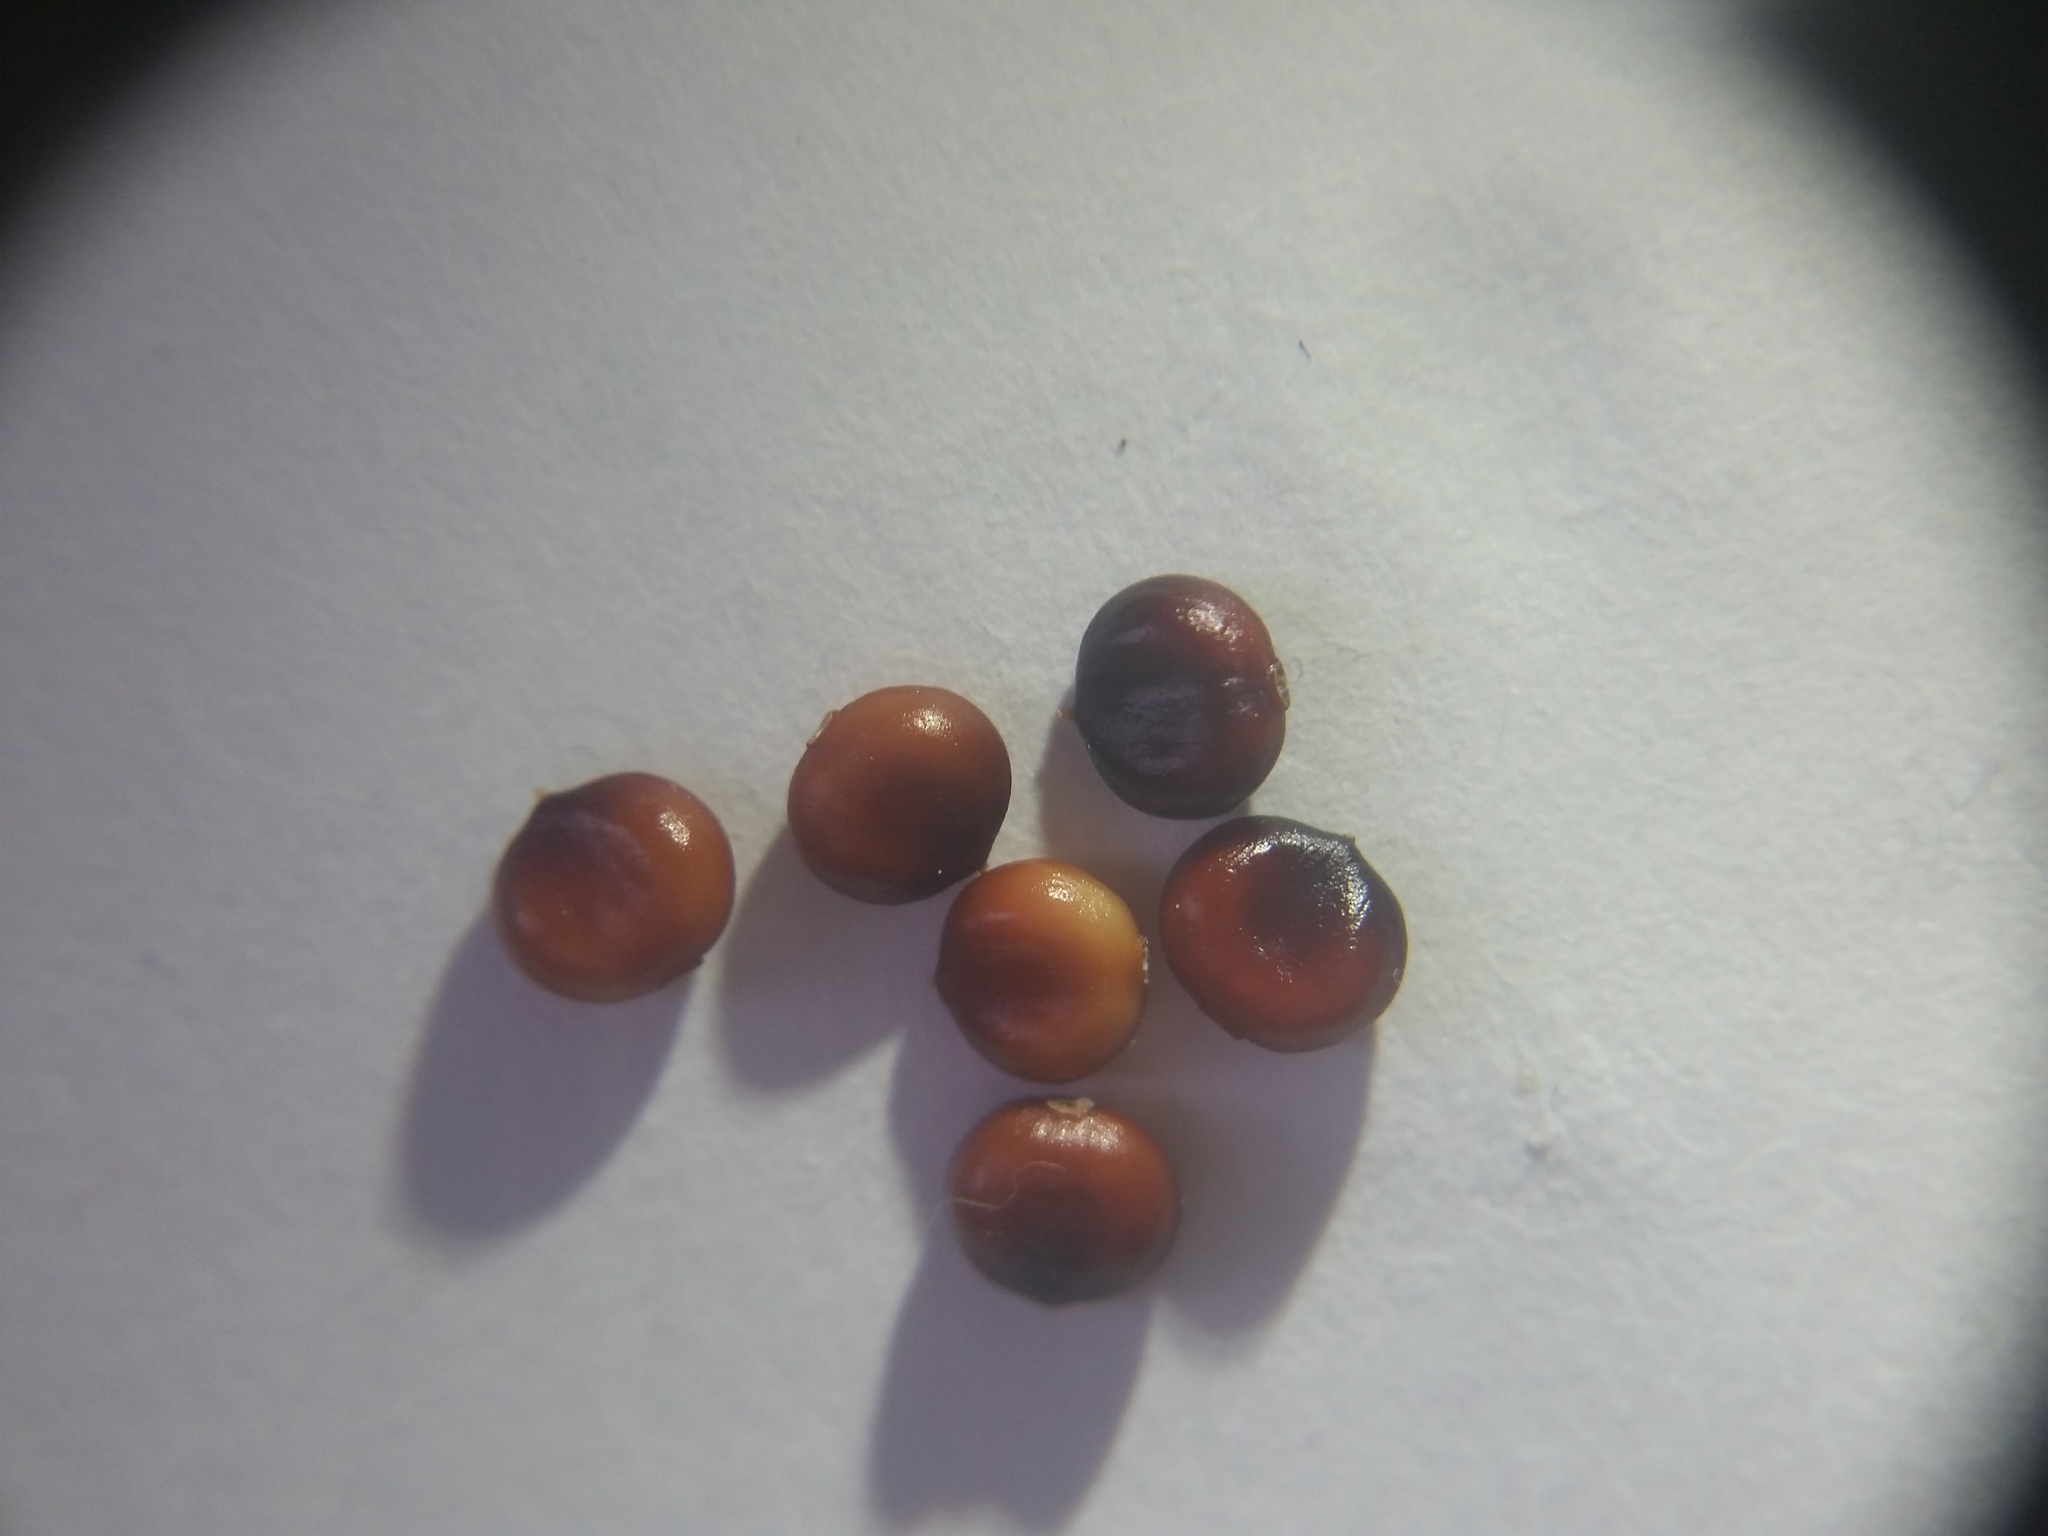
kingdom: Plantae
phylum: Tracheophyta
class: Magnoliopsida
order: Caryophyllales
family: Polygonaceae
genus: Persicaria
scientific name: Persicaria orientalis
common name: Kiss-me-over-the-garden-gate
